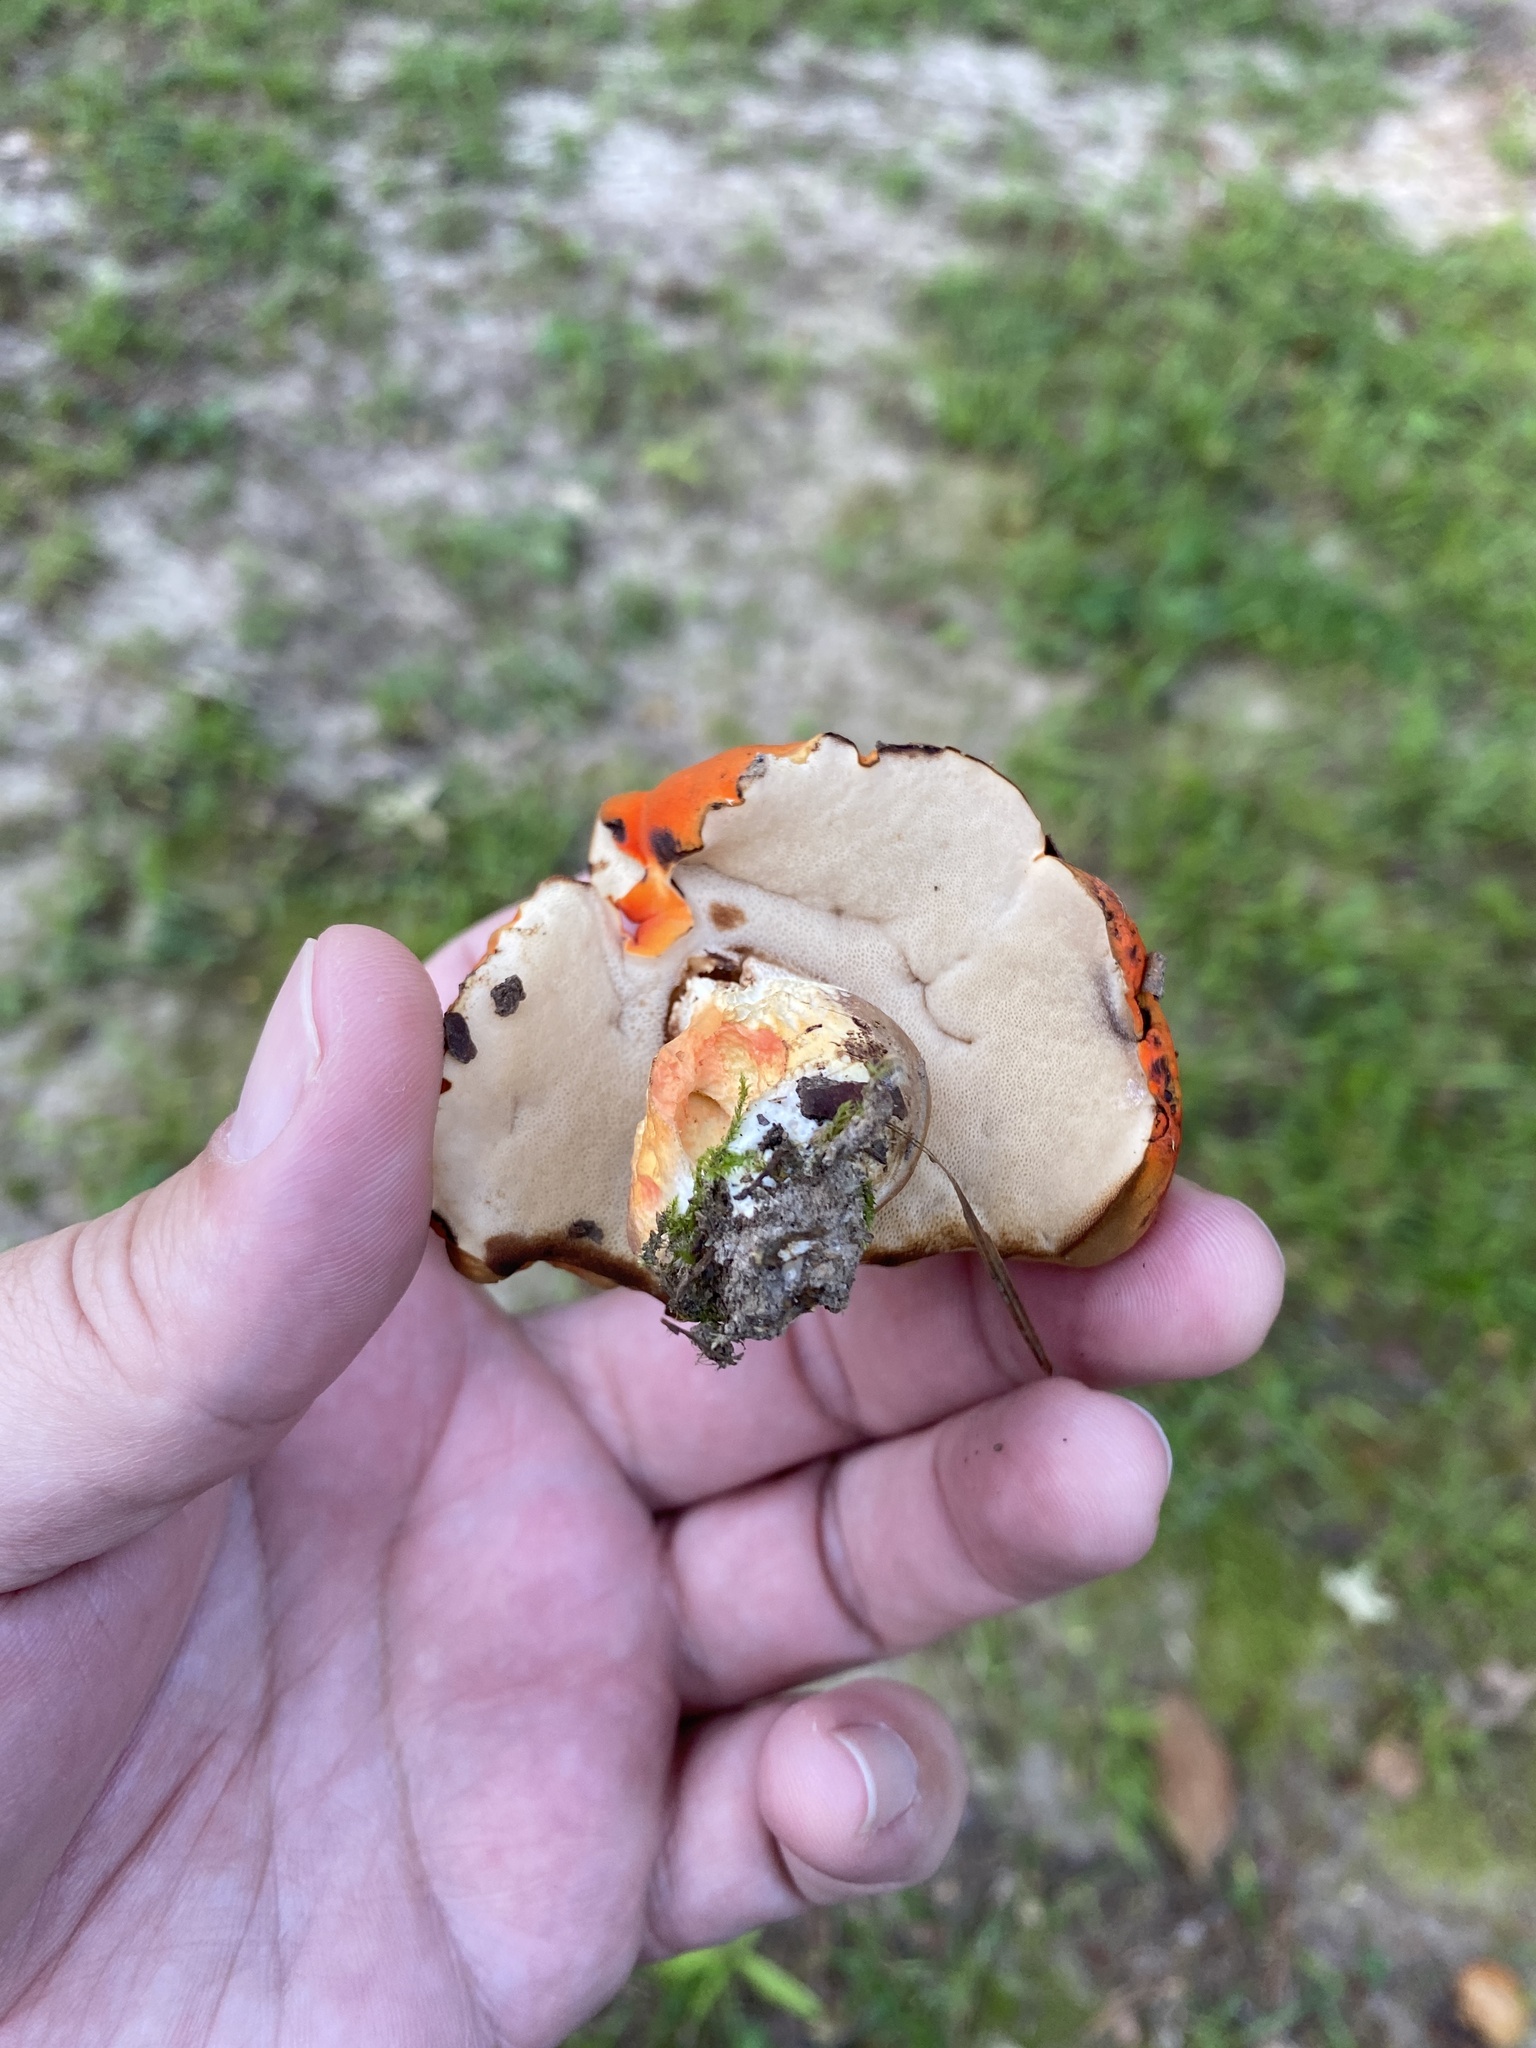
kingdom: Fungi
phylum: Basidiomycota
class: Agaricomycetes
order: Boletales
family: Boletaceae
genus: Tylopilus
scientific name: Tylopilus balloui
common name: Burnt-orange bolete
